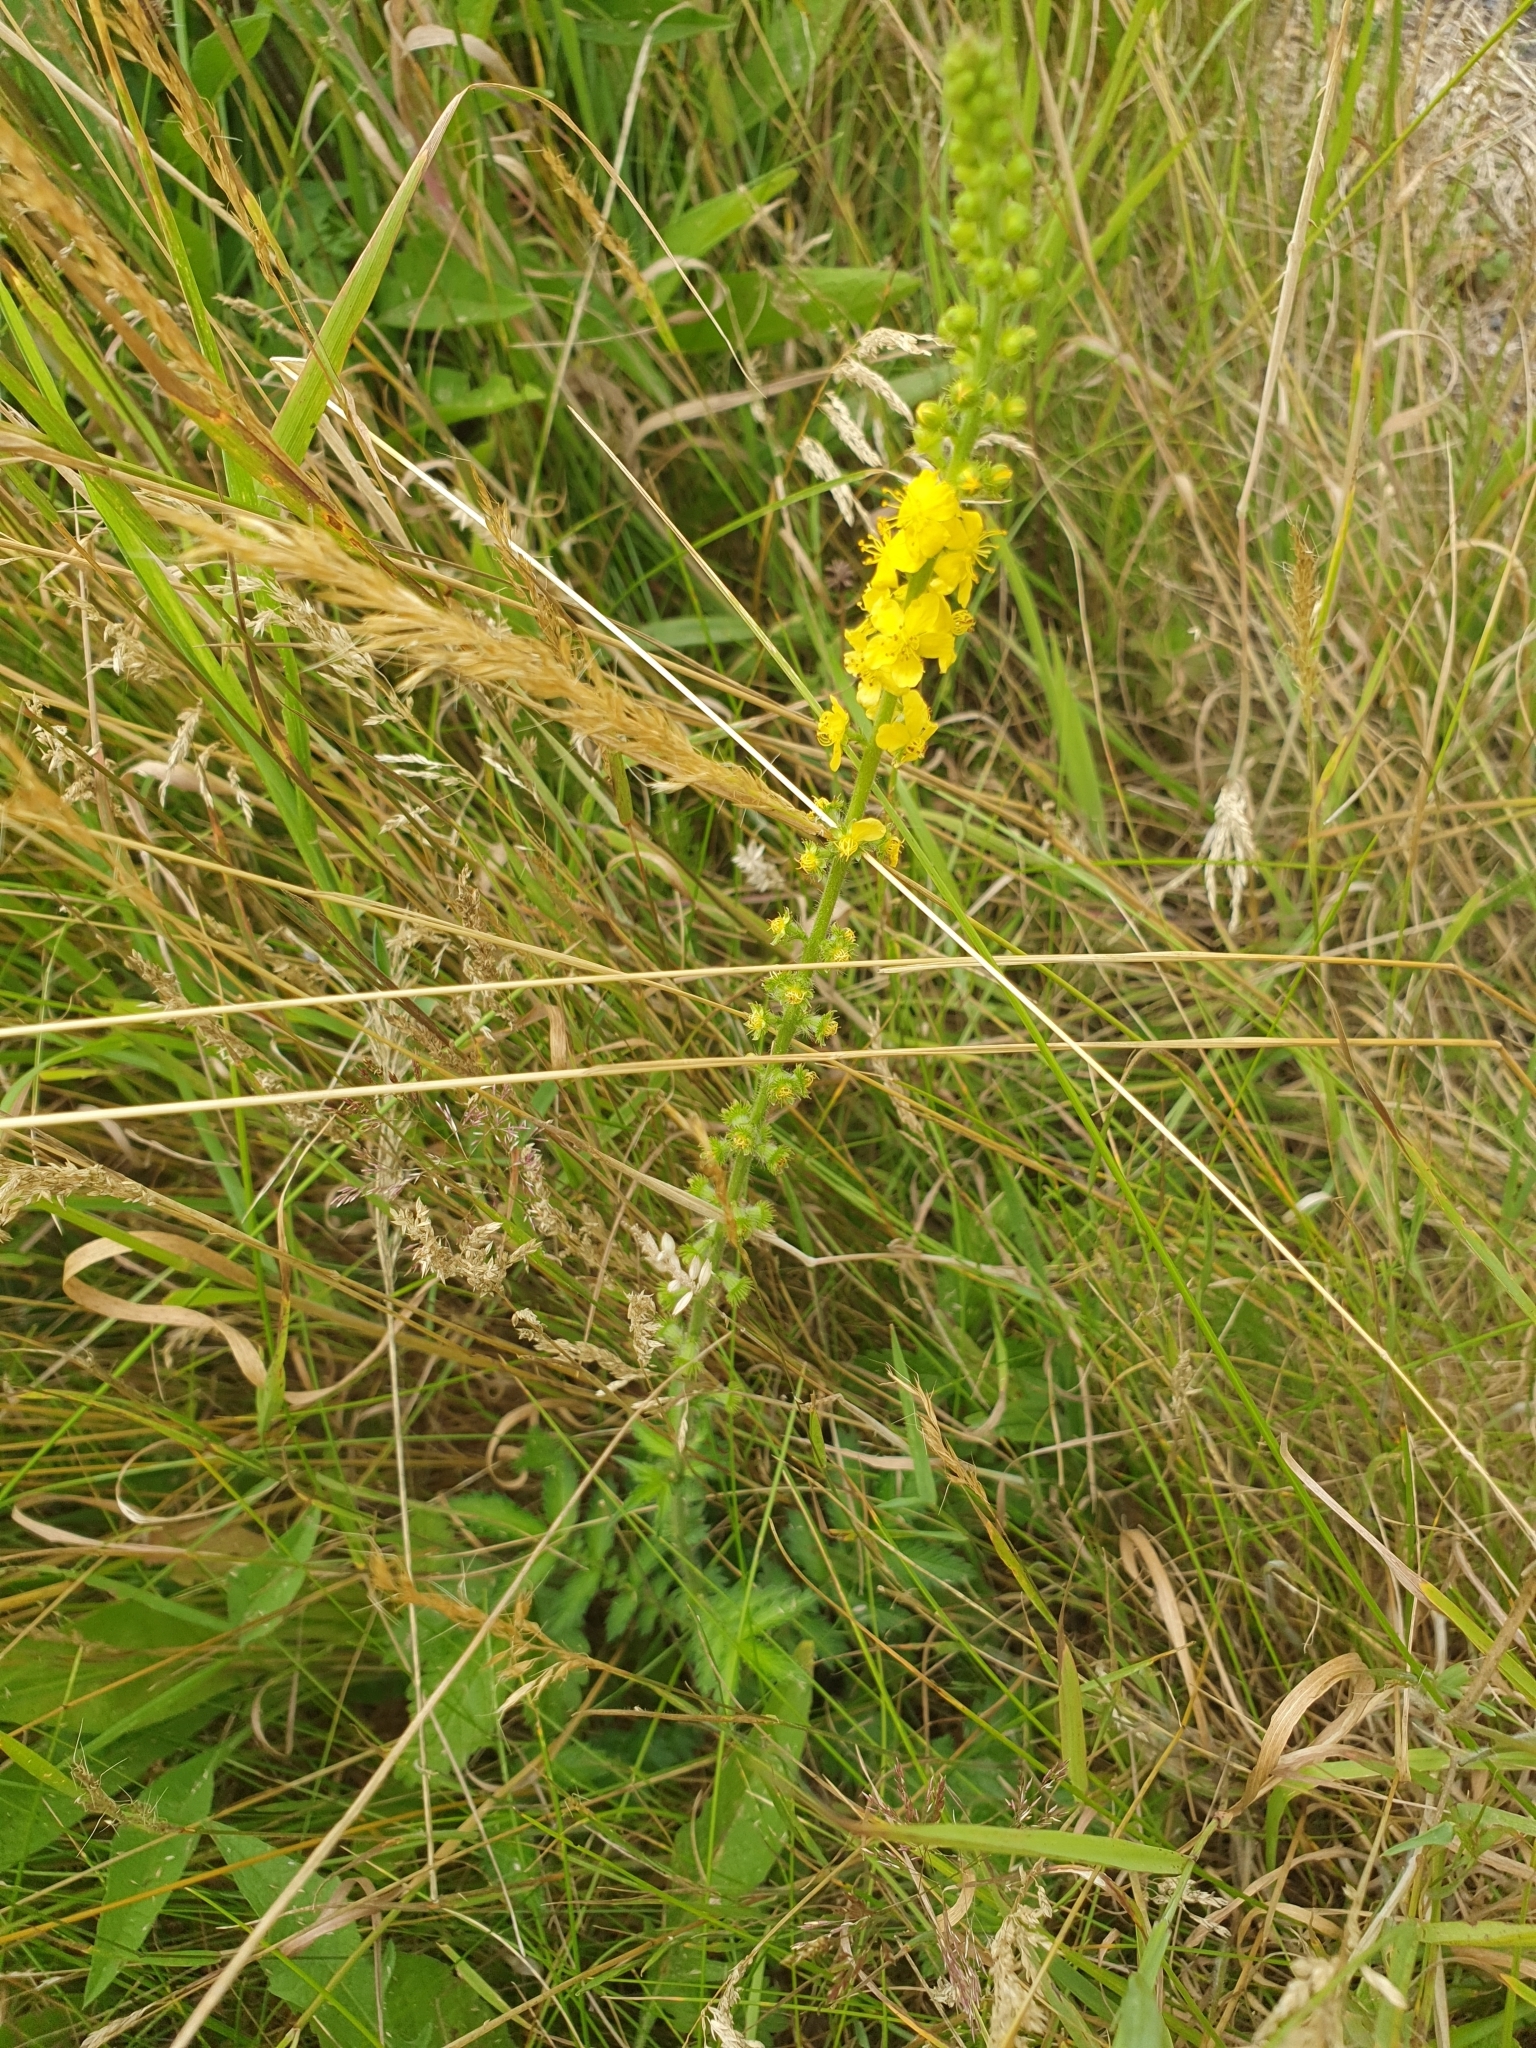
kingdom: Plantae
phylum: Tracheophyta
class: Magnoliopsida
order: Rosales
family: Rosaceae
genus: Agrimonia
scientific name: Agrimonia eupatoria
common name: Agrimony
